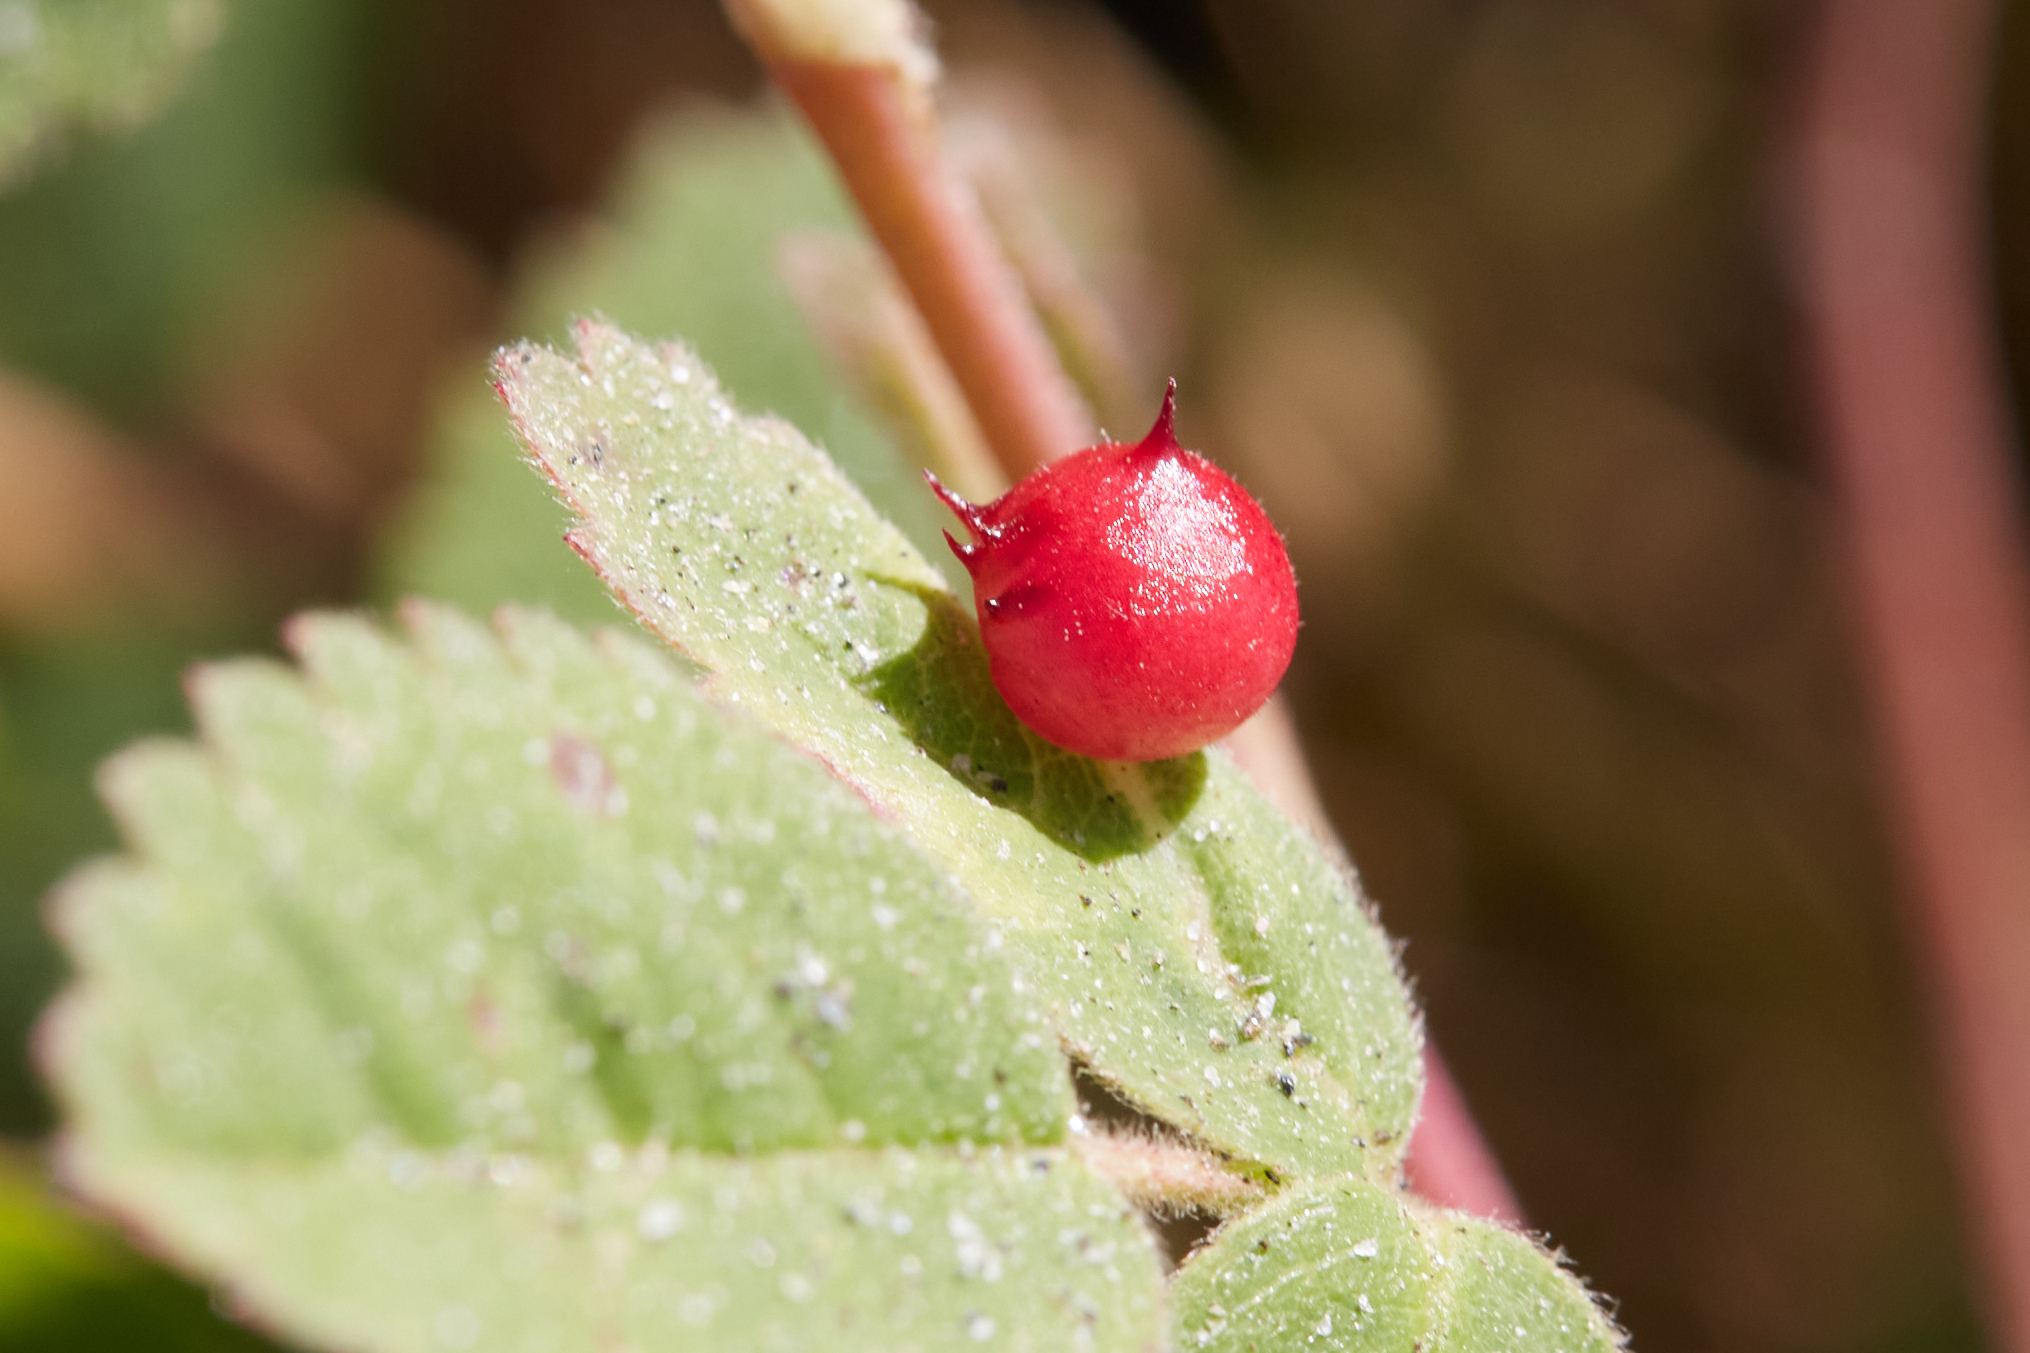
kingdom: Animalia
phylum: Arthropoda
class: Insecta
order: Hymenoptera
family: Cynipidae
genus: Diplolepis
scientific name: Diplolepis polita
